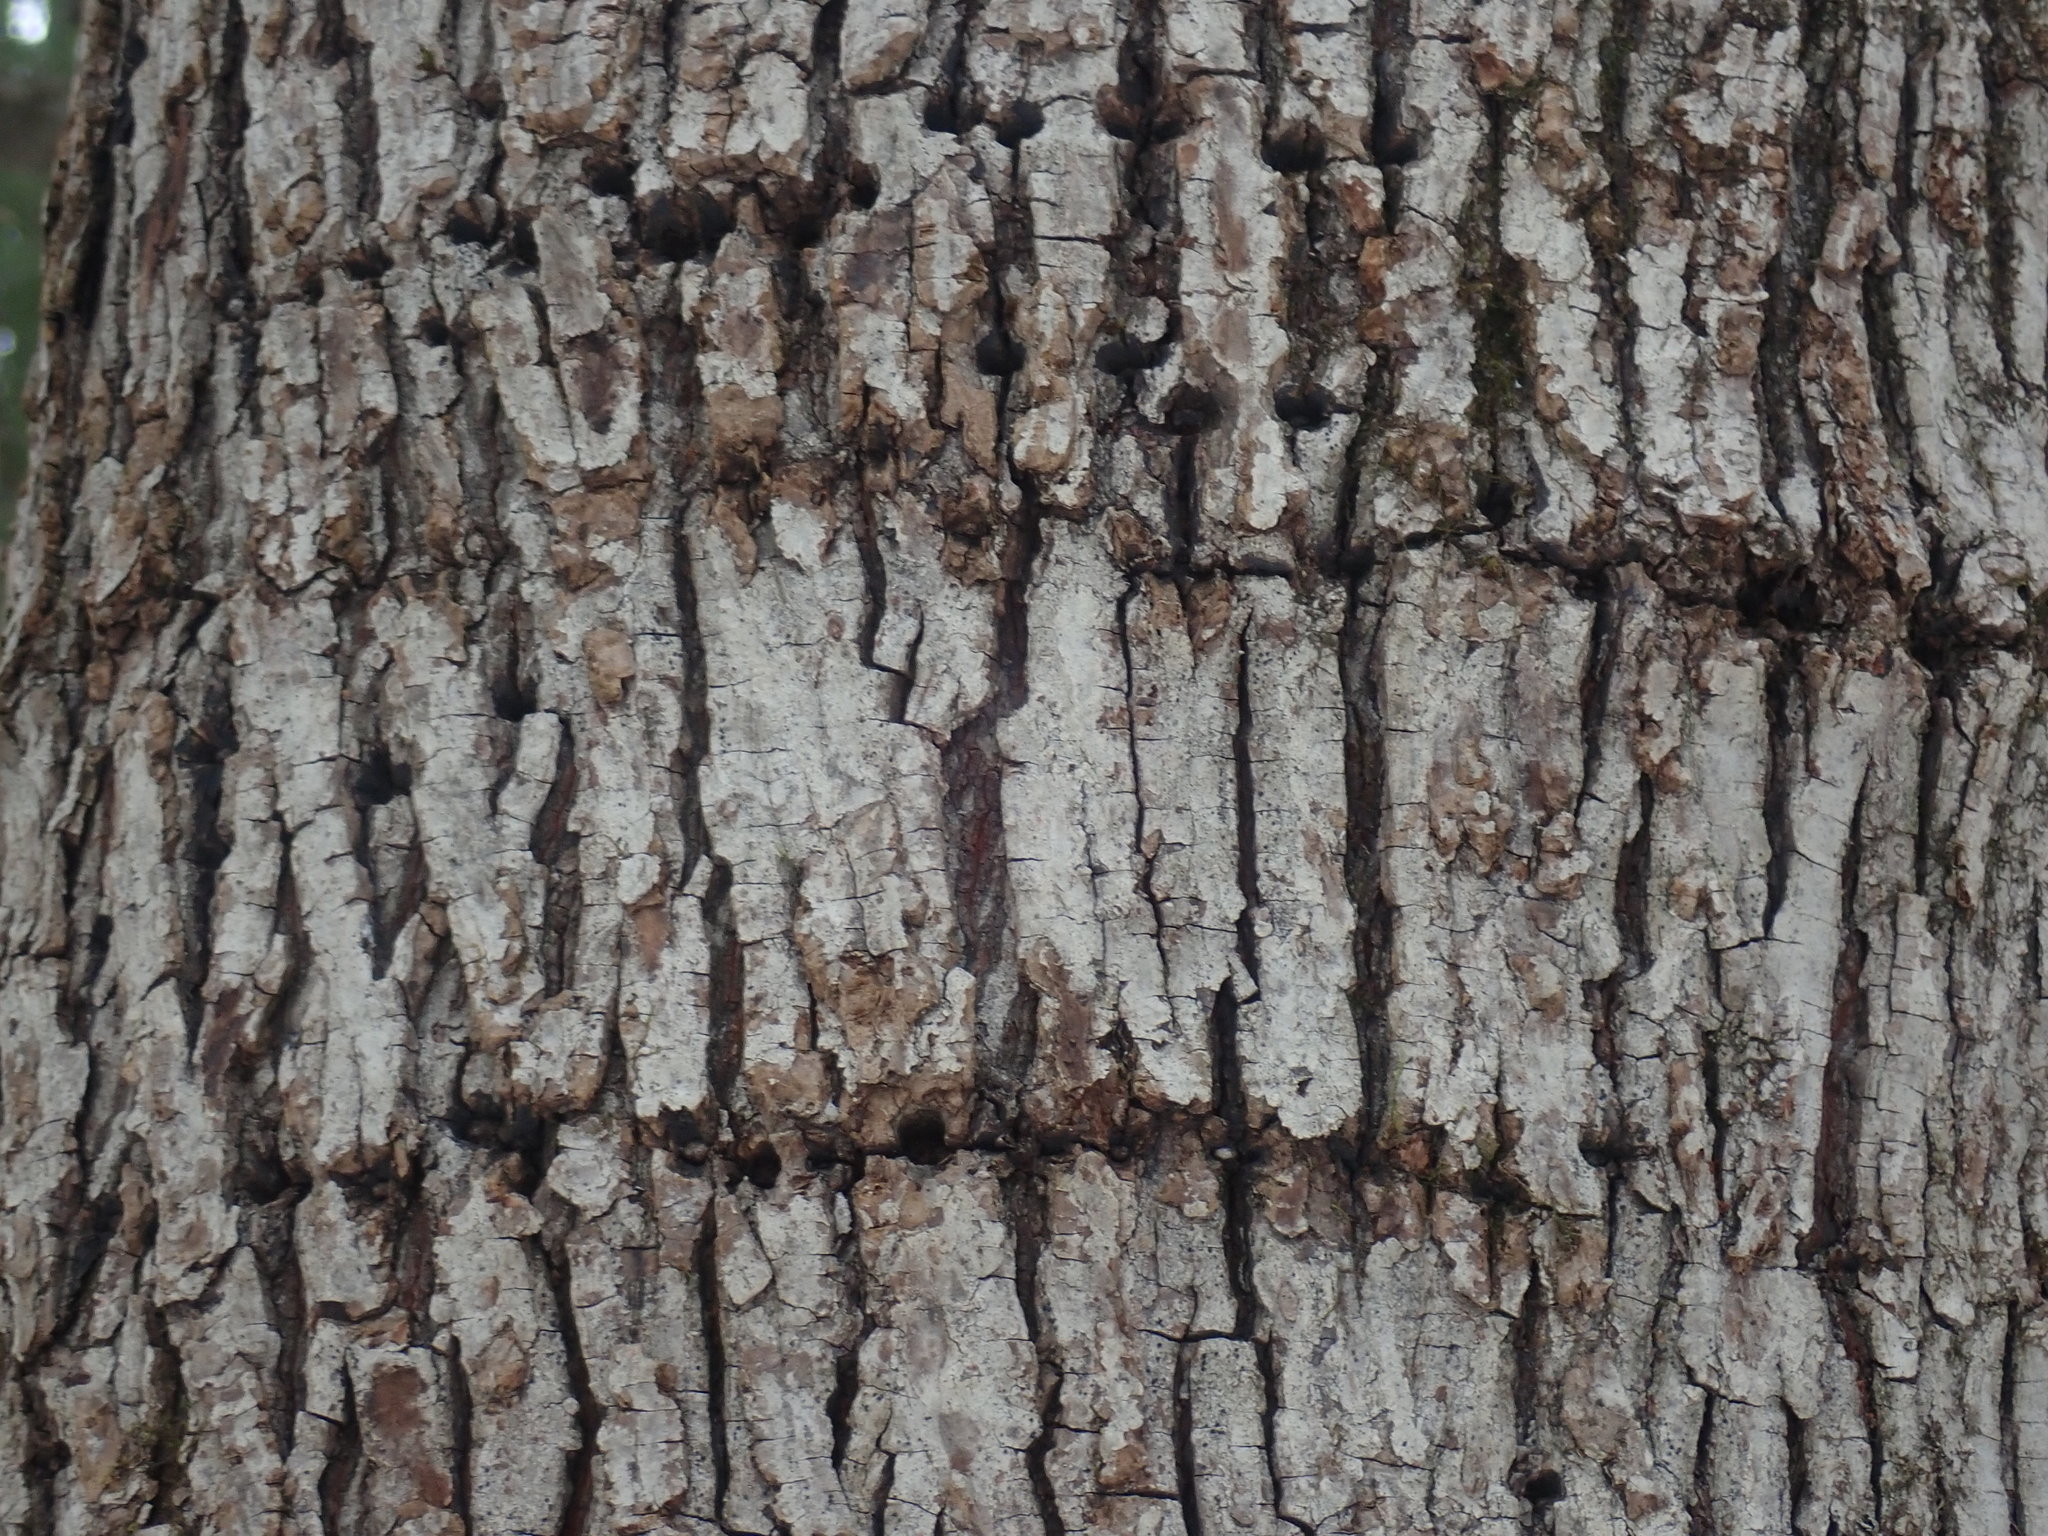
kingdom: Animalia
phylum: Chordata
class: Aves
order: Piciformes
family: Picidae
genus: Sphyrapicus
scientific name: Sphyrapicus varius
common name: Yellow-bellied sapsucker
